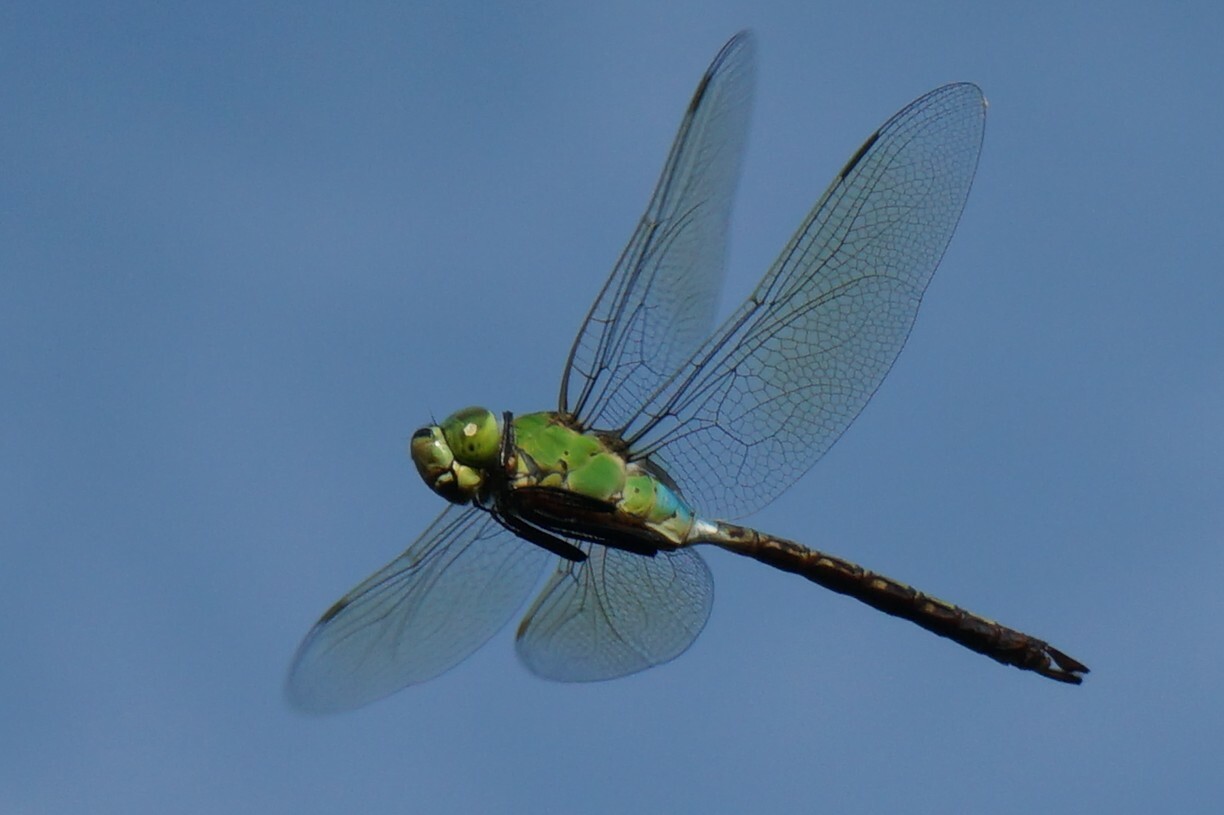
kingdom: Animalia
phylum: Arthropoda
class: Insecta
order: Odonata
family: Aeshnidae
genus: Anax
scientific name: Anax julius
